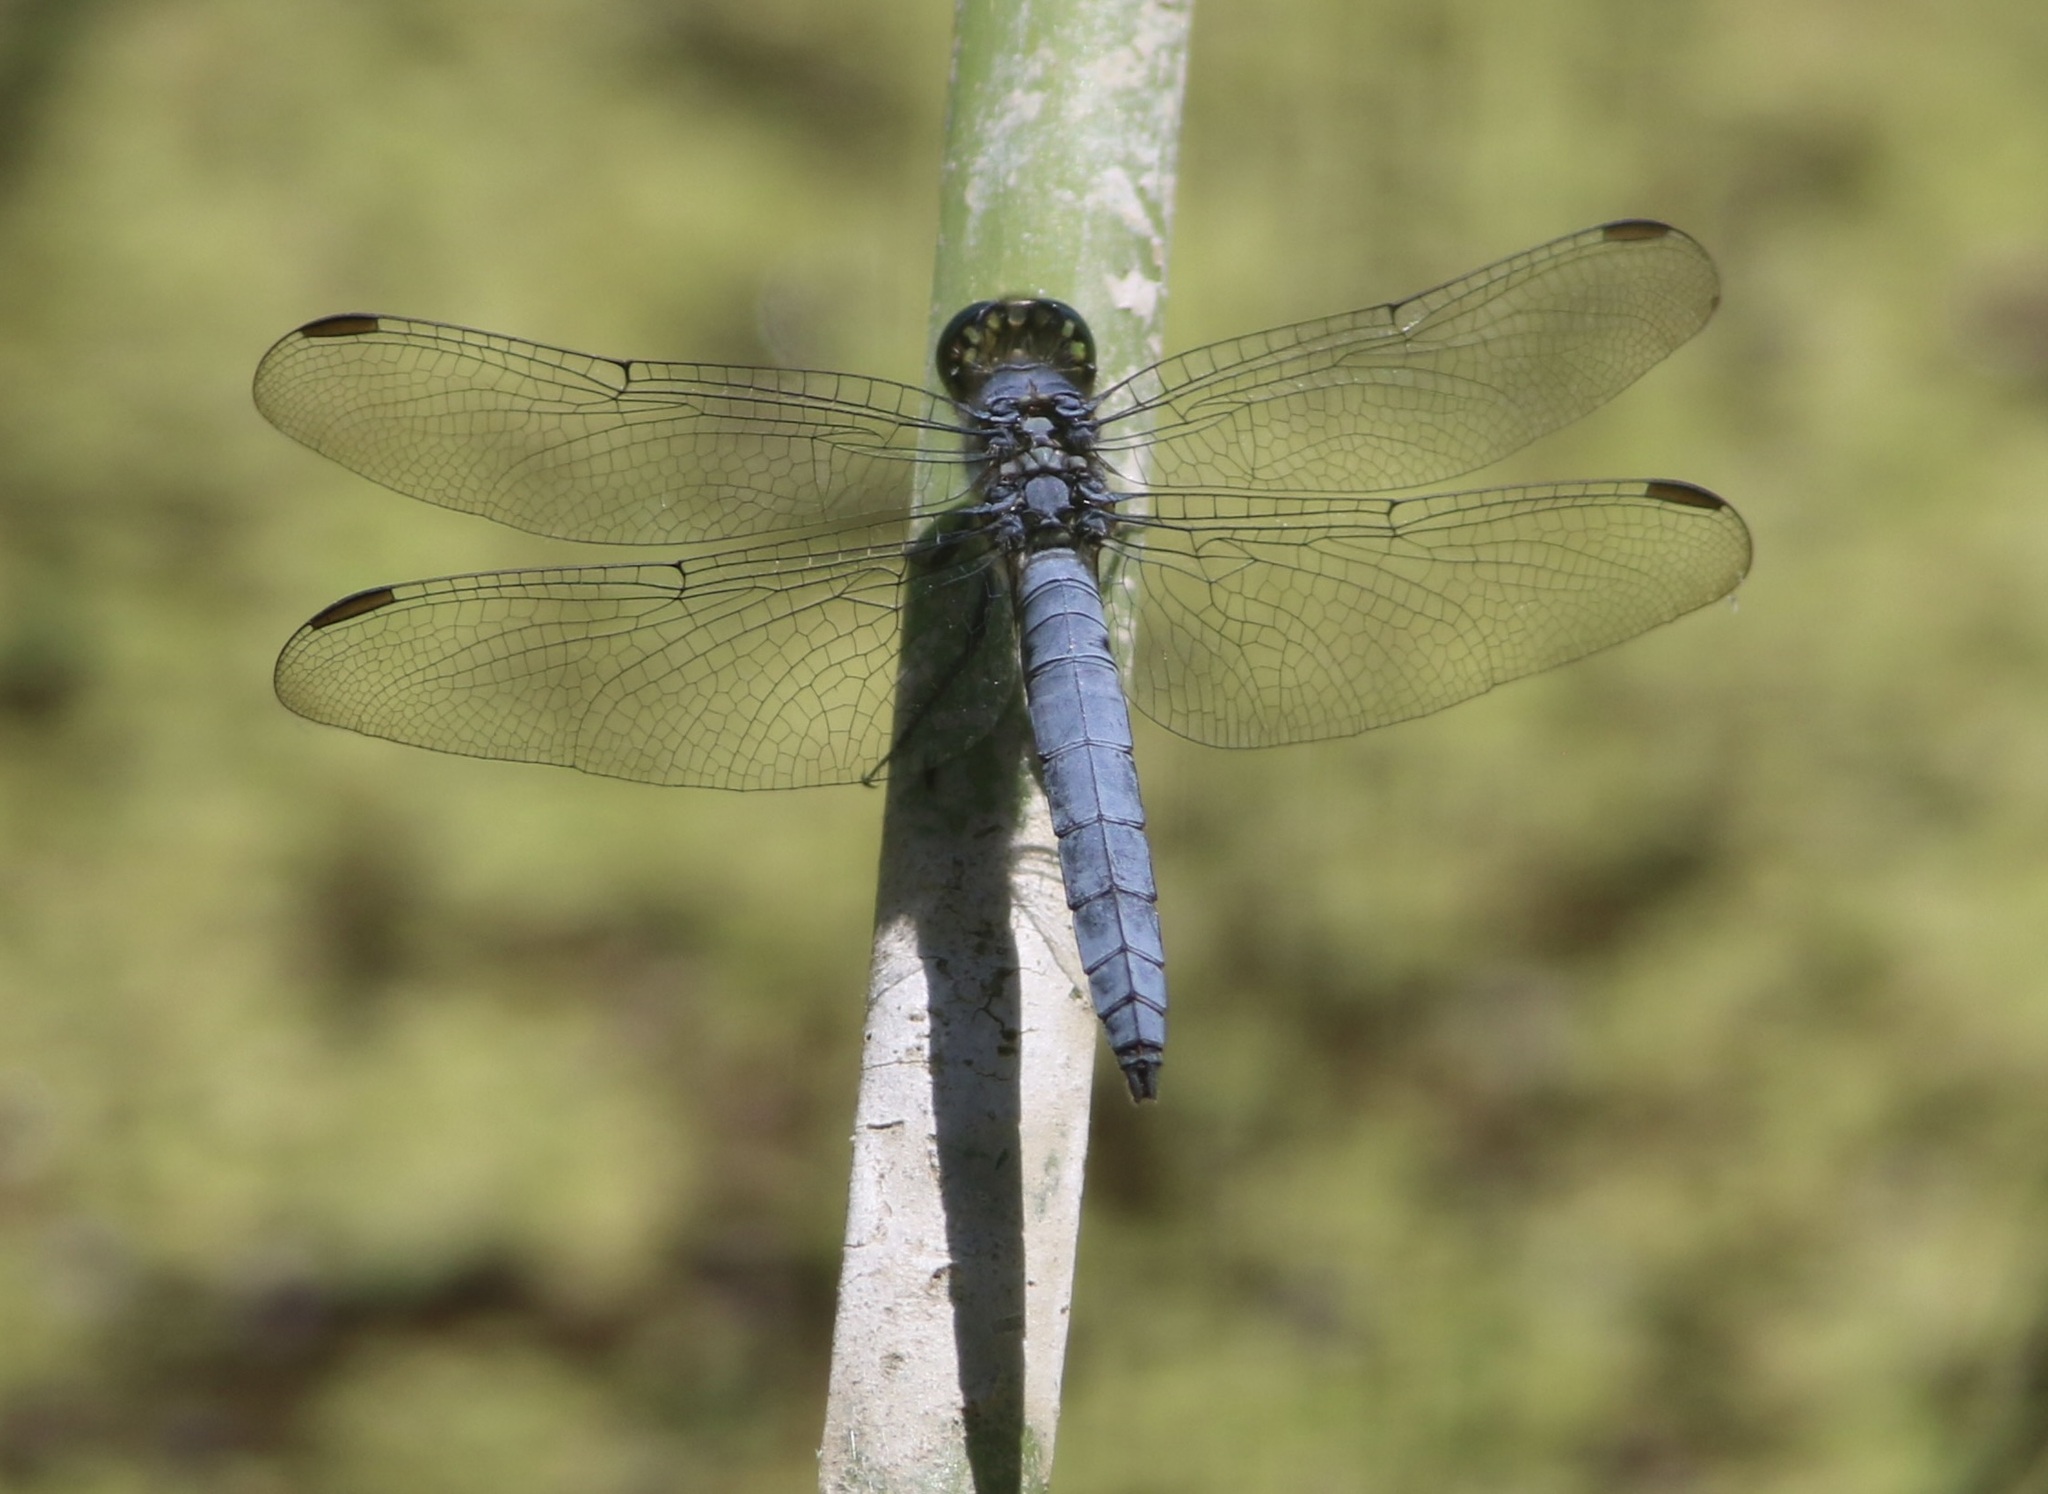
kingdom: Animalia
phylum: Arthropoda
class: Insecta
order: Odonata
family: Libellulidae
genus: Erythemis
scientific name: Erythemis collocata
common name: Western pondhawk
